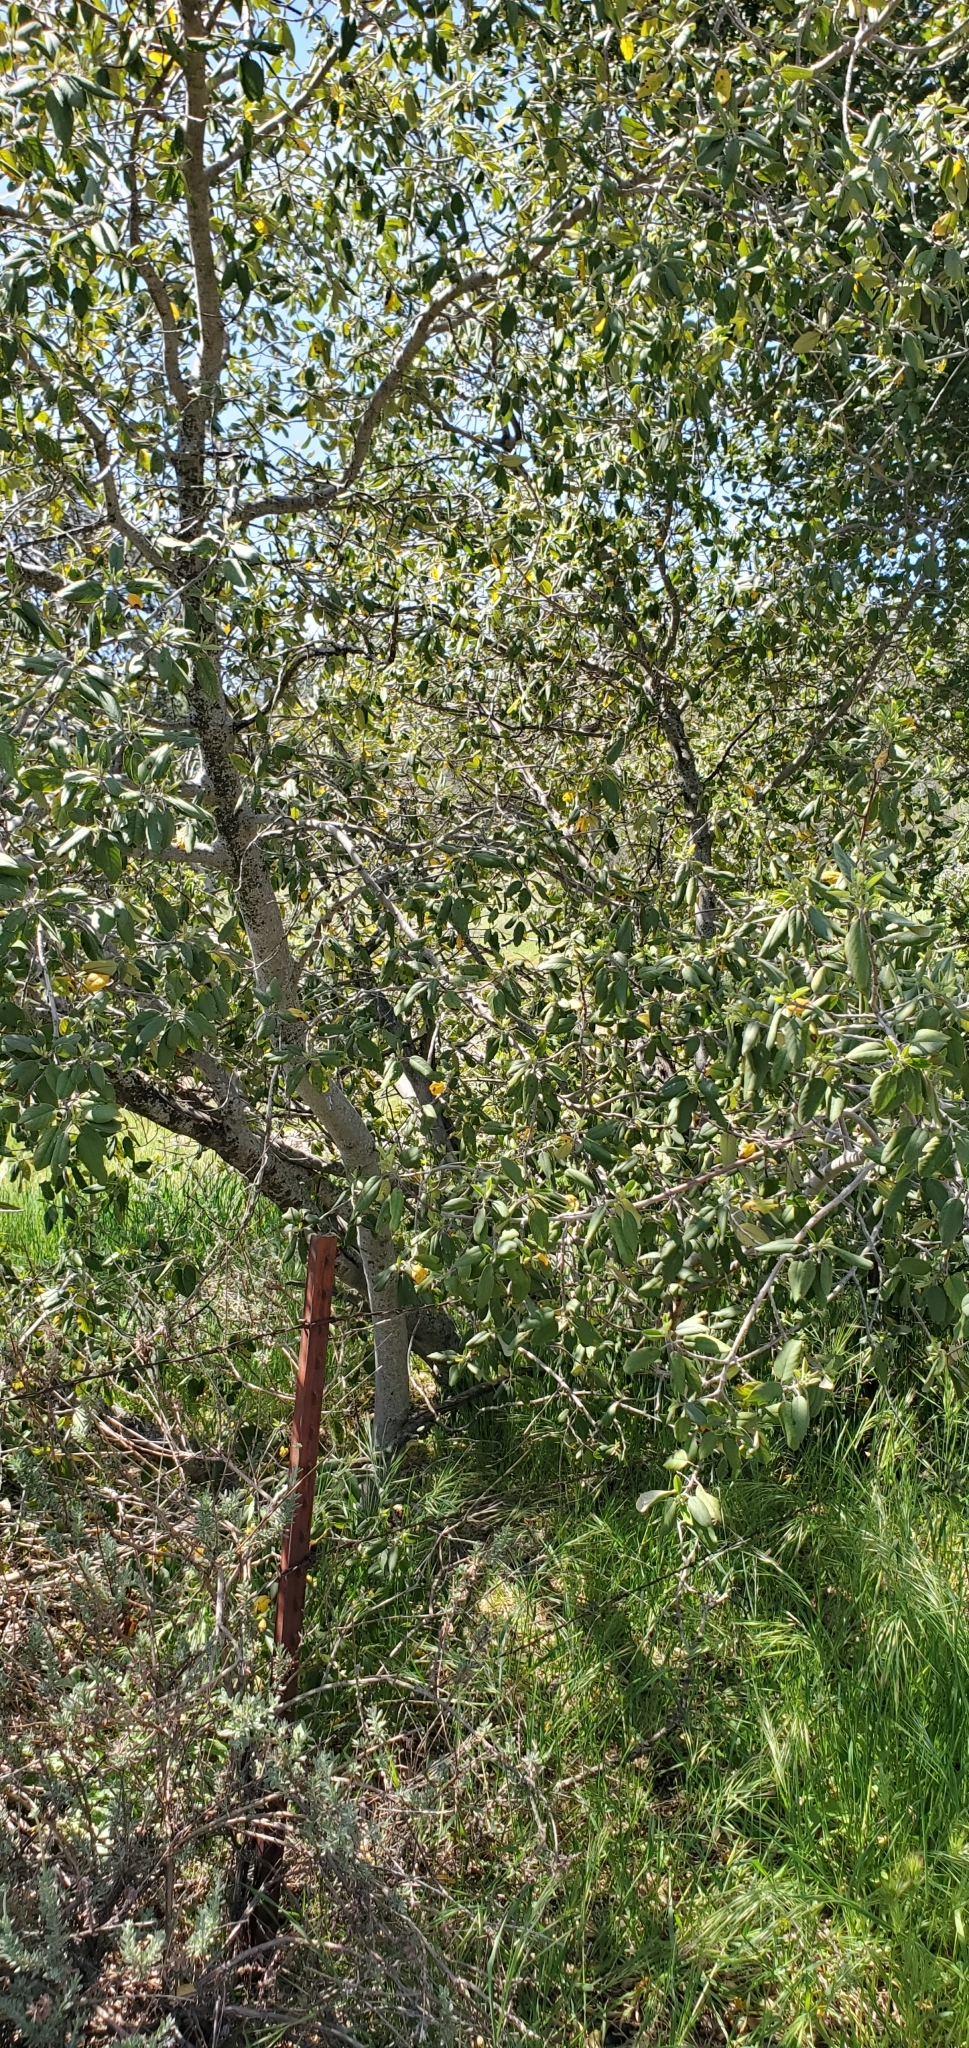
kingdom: Plantae
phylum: Tracheophyta
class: Magnoliopsida
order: Rosales
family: Rhamnaceae
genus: Frangula
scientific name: Frangula californica
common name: California buckthorn
